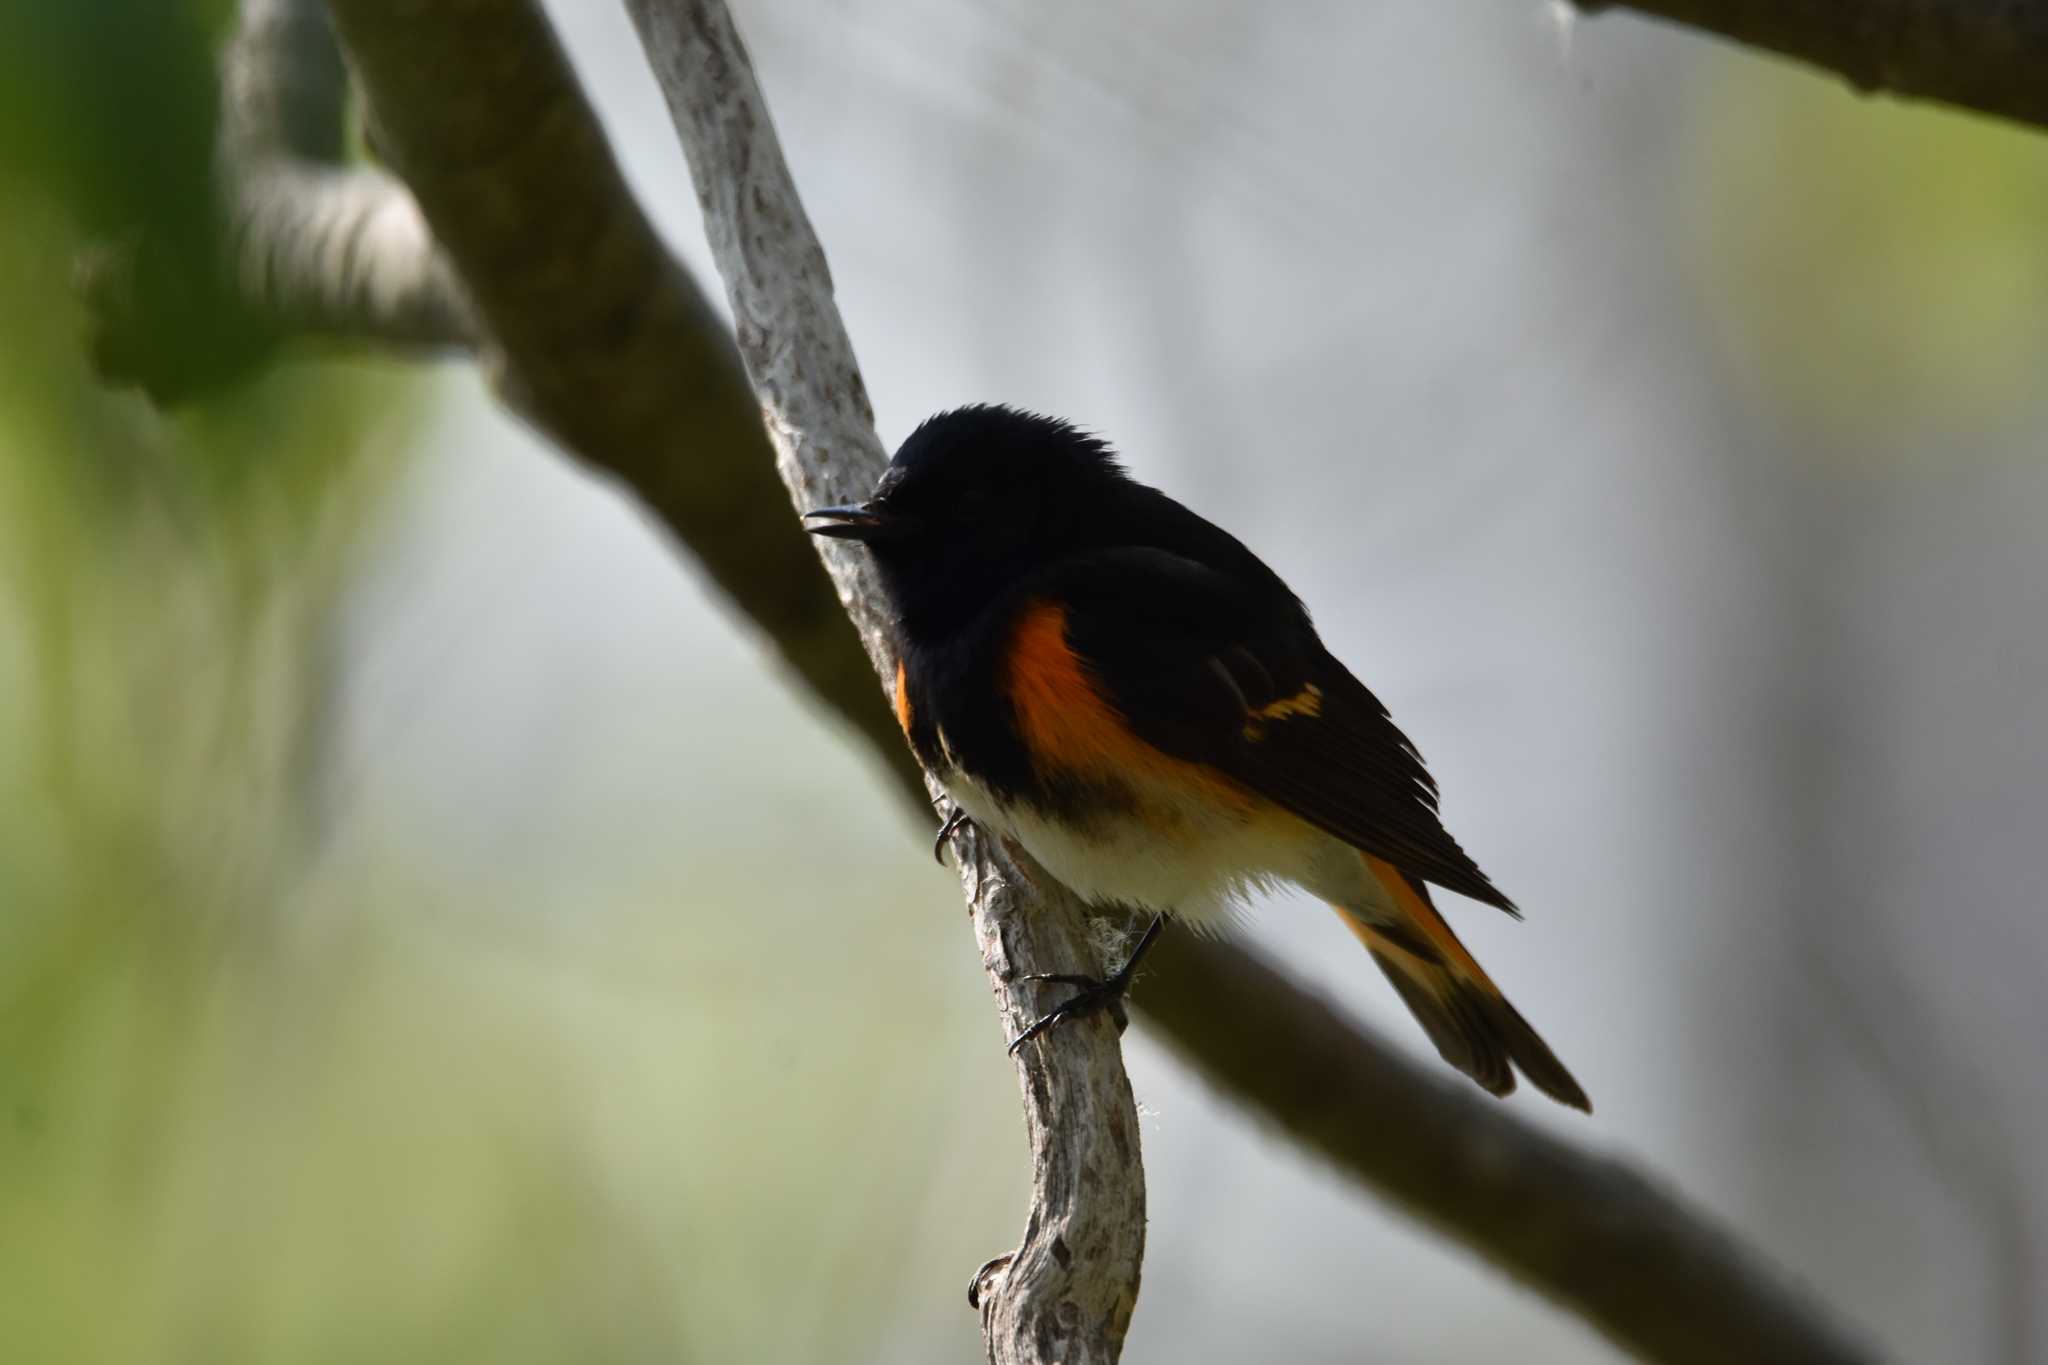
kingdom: Animalia
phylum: Chordata
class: Aves
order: Passeriformes
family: Parulidae
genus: Setophaga
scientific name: Setophaga ruticilla
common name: American redstart
